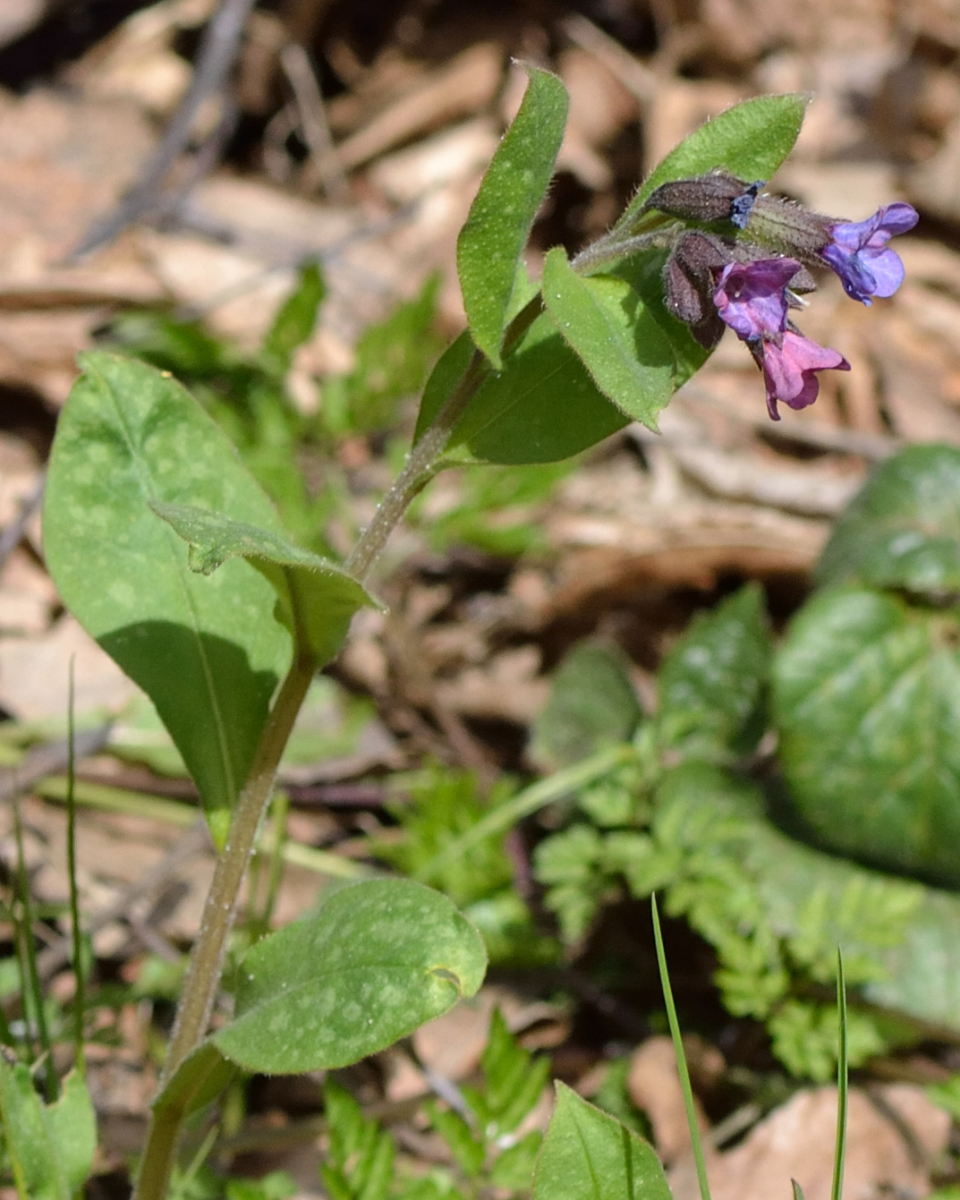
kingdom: Plantae
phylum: Tracheophyta
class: Magnoliopsida
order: Boraginales
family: Boraginaceae
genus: Pulmonaria
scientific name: Pulmonaria obscura
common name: Suffolk lungwort
